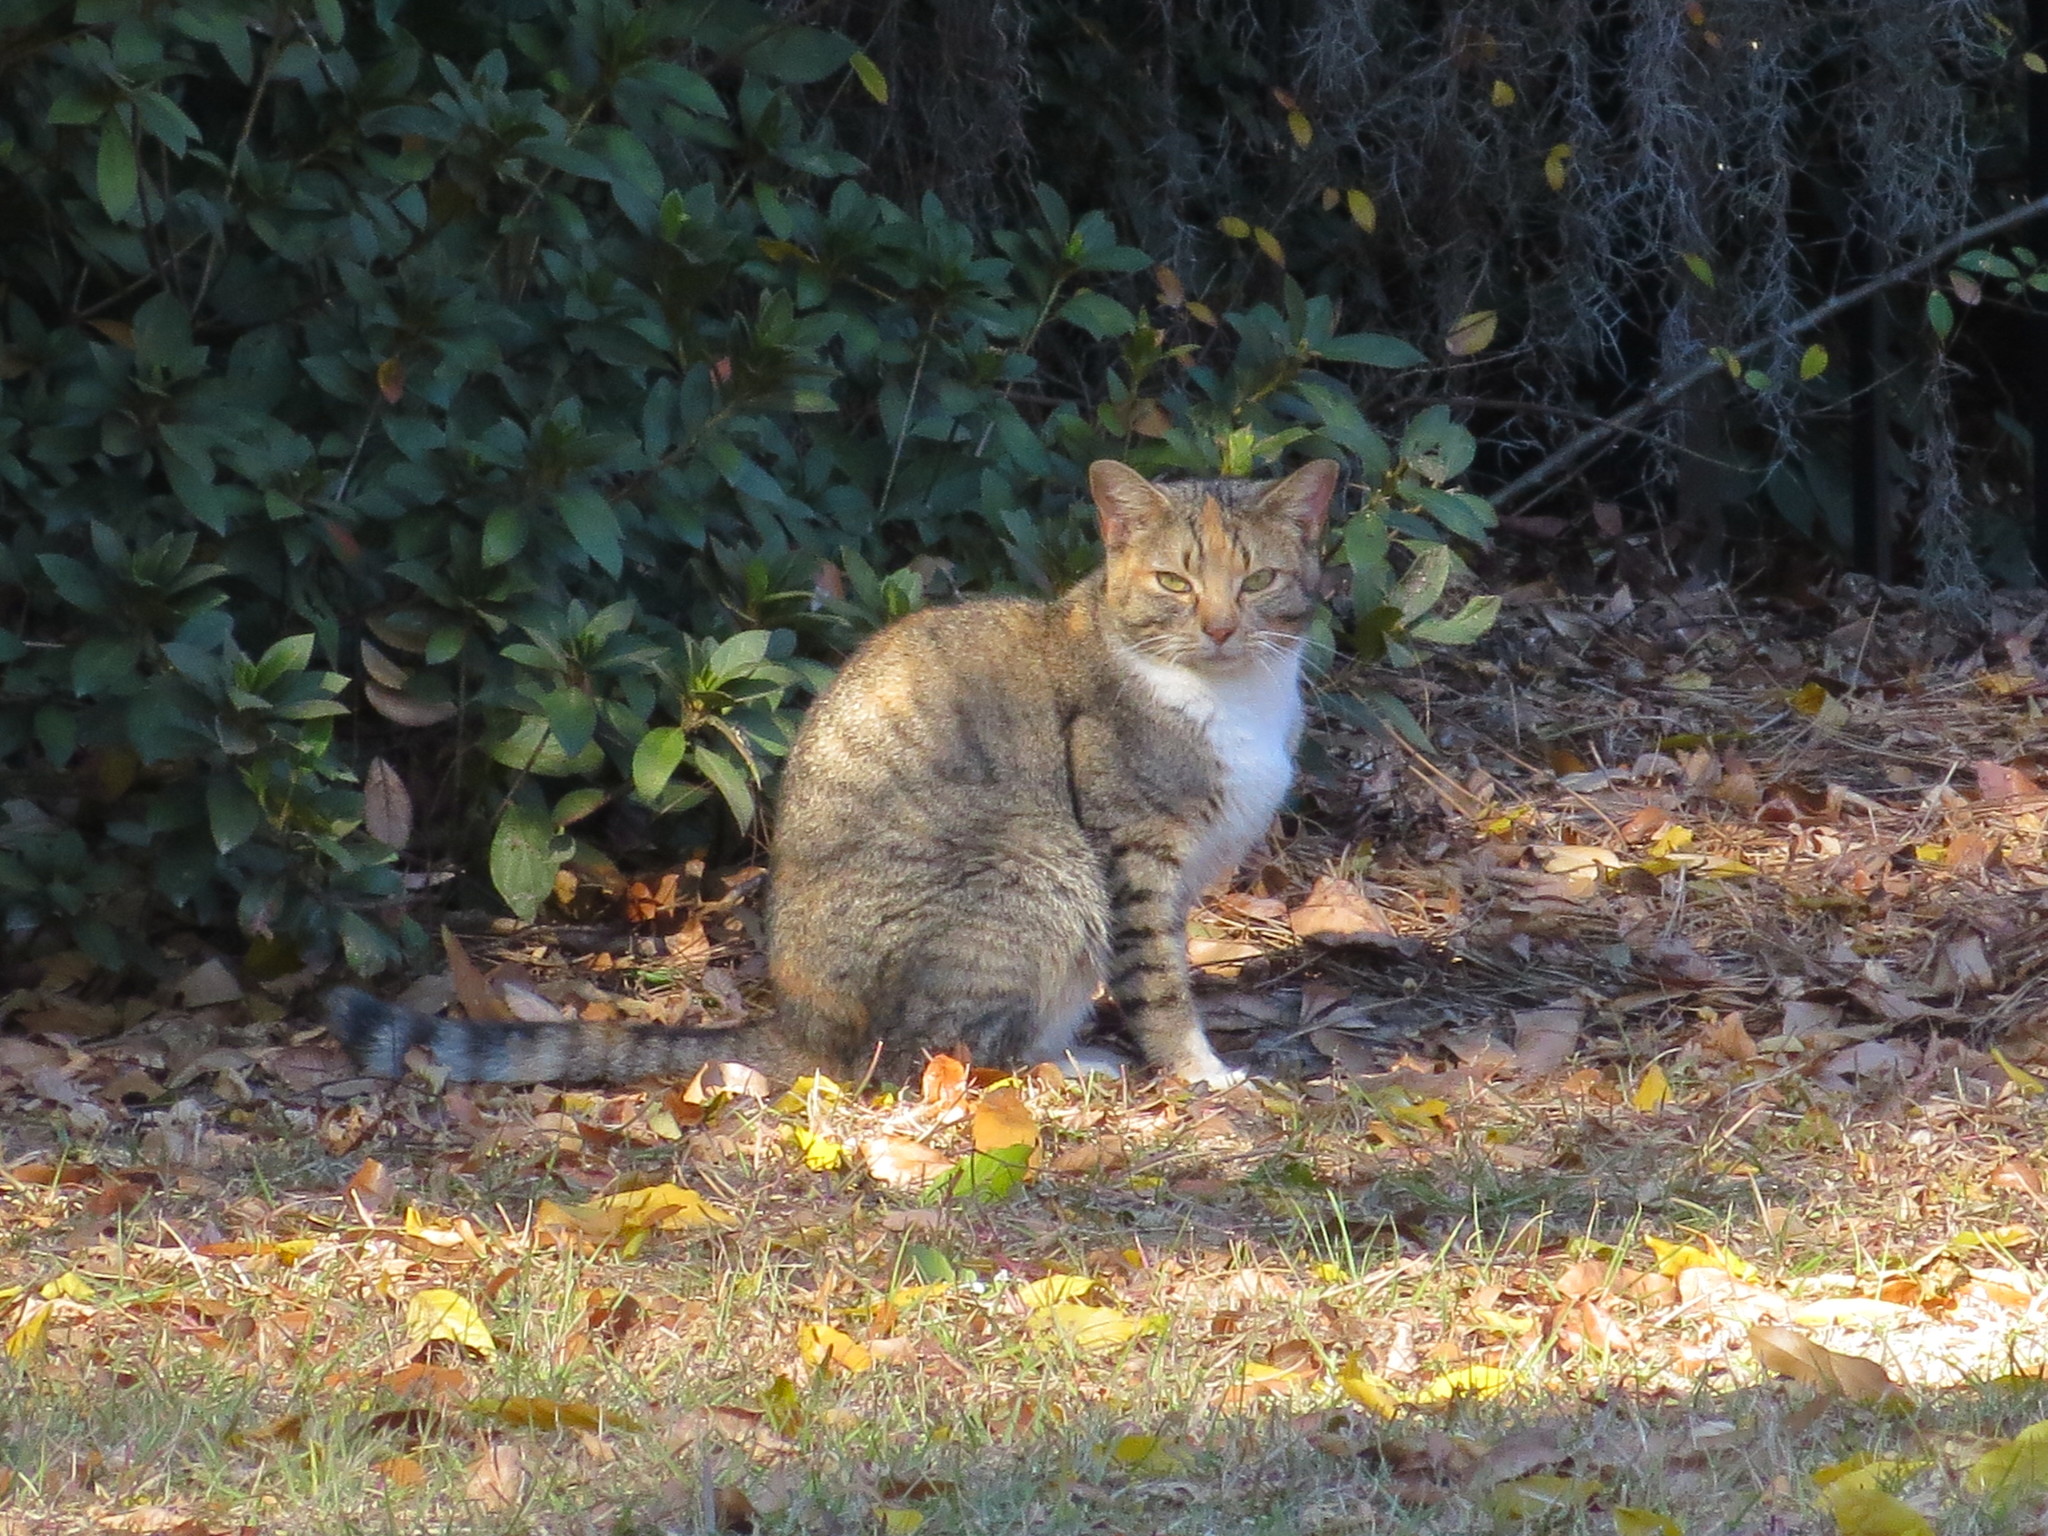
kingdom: Animalia
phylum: Chordata
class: Mammalia
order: Carnivora
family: Felidae
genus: Felis
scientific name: Felis catus
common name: Domestic cat
